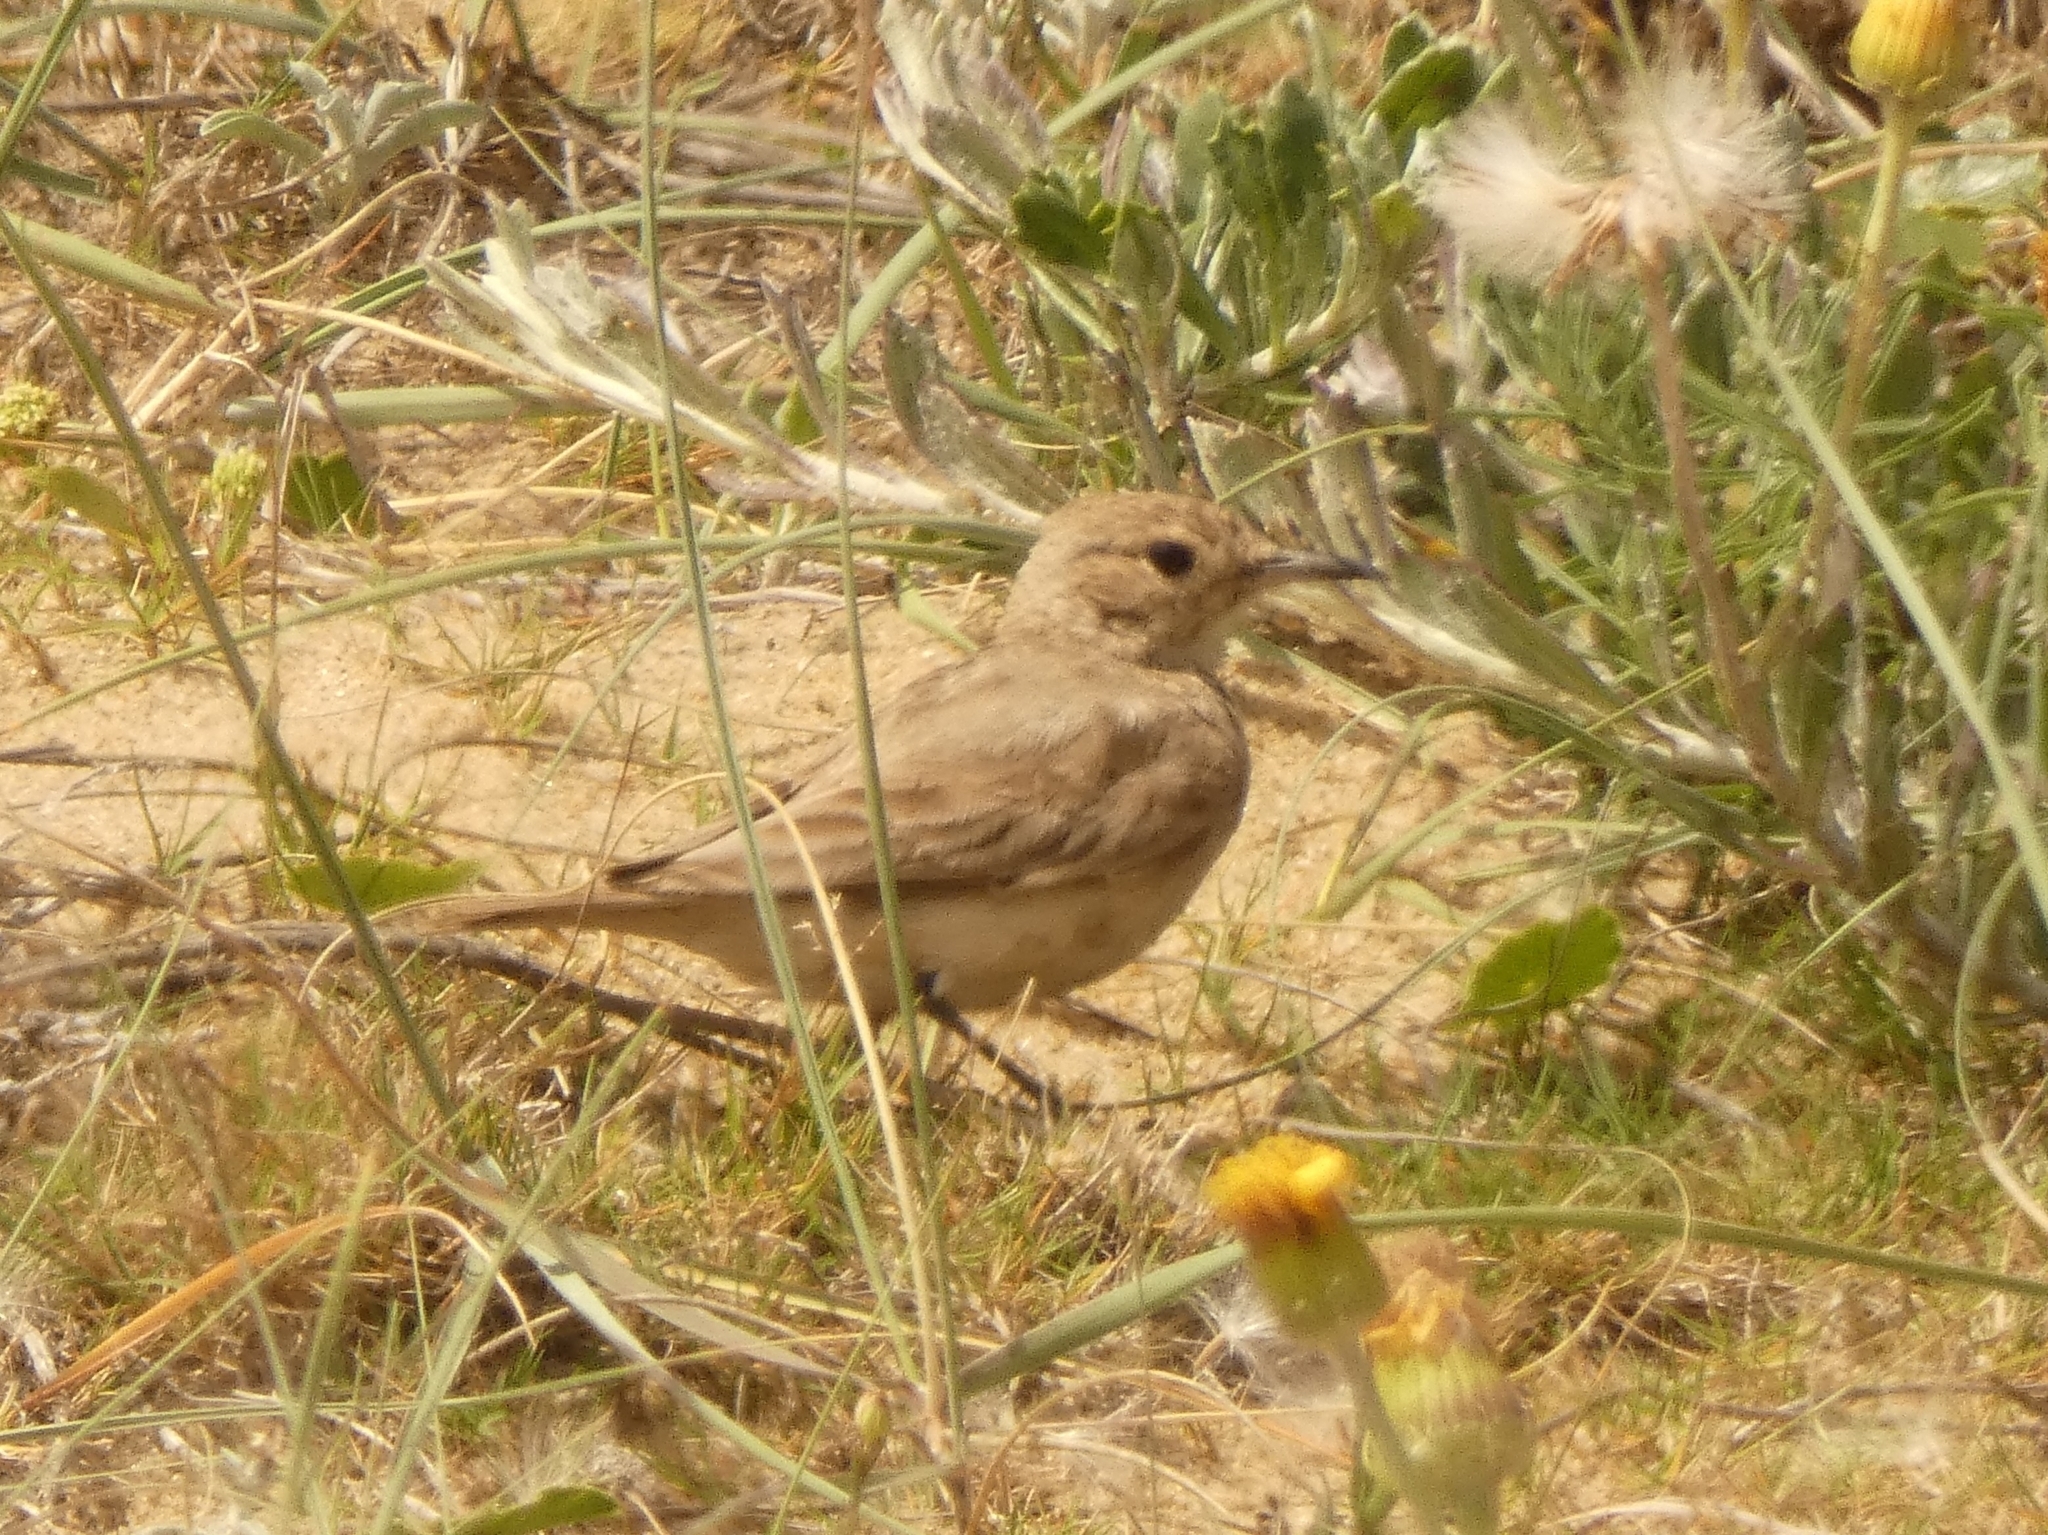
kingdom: Animalia
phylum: Chordata
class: Aves
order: Passeriformes
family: Furnariidae
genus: Geositta
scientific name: Geositta cunicularia
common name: Common miner
